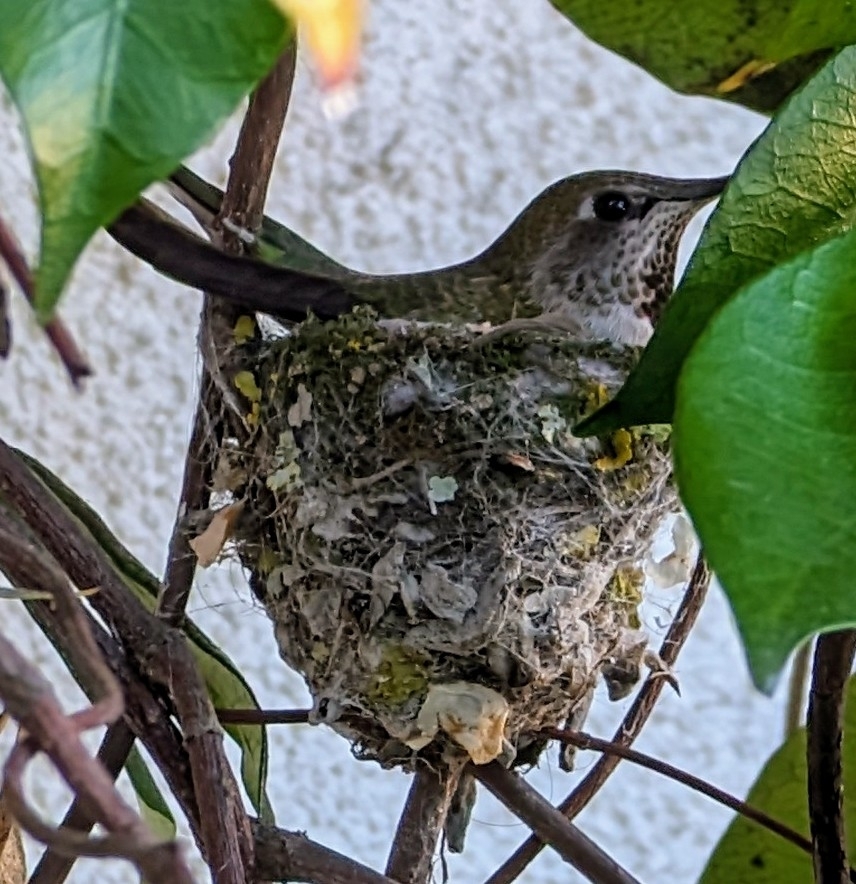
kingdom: Animalia
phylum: Chordata
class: Aves
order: Apodiformes
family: Trochilidae
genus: Calypte
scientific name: Calypte anna
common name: Anna's hummingbird
